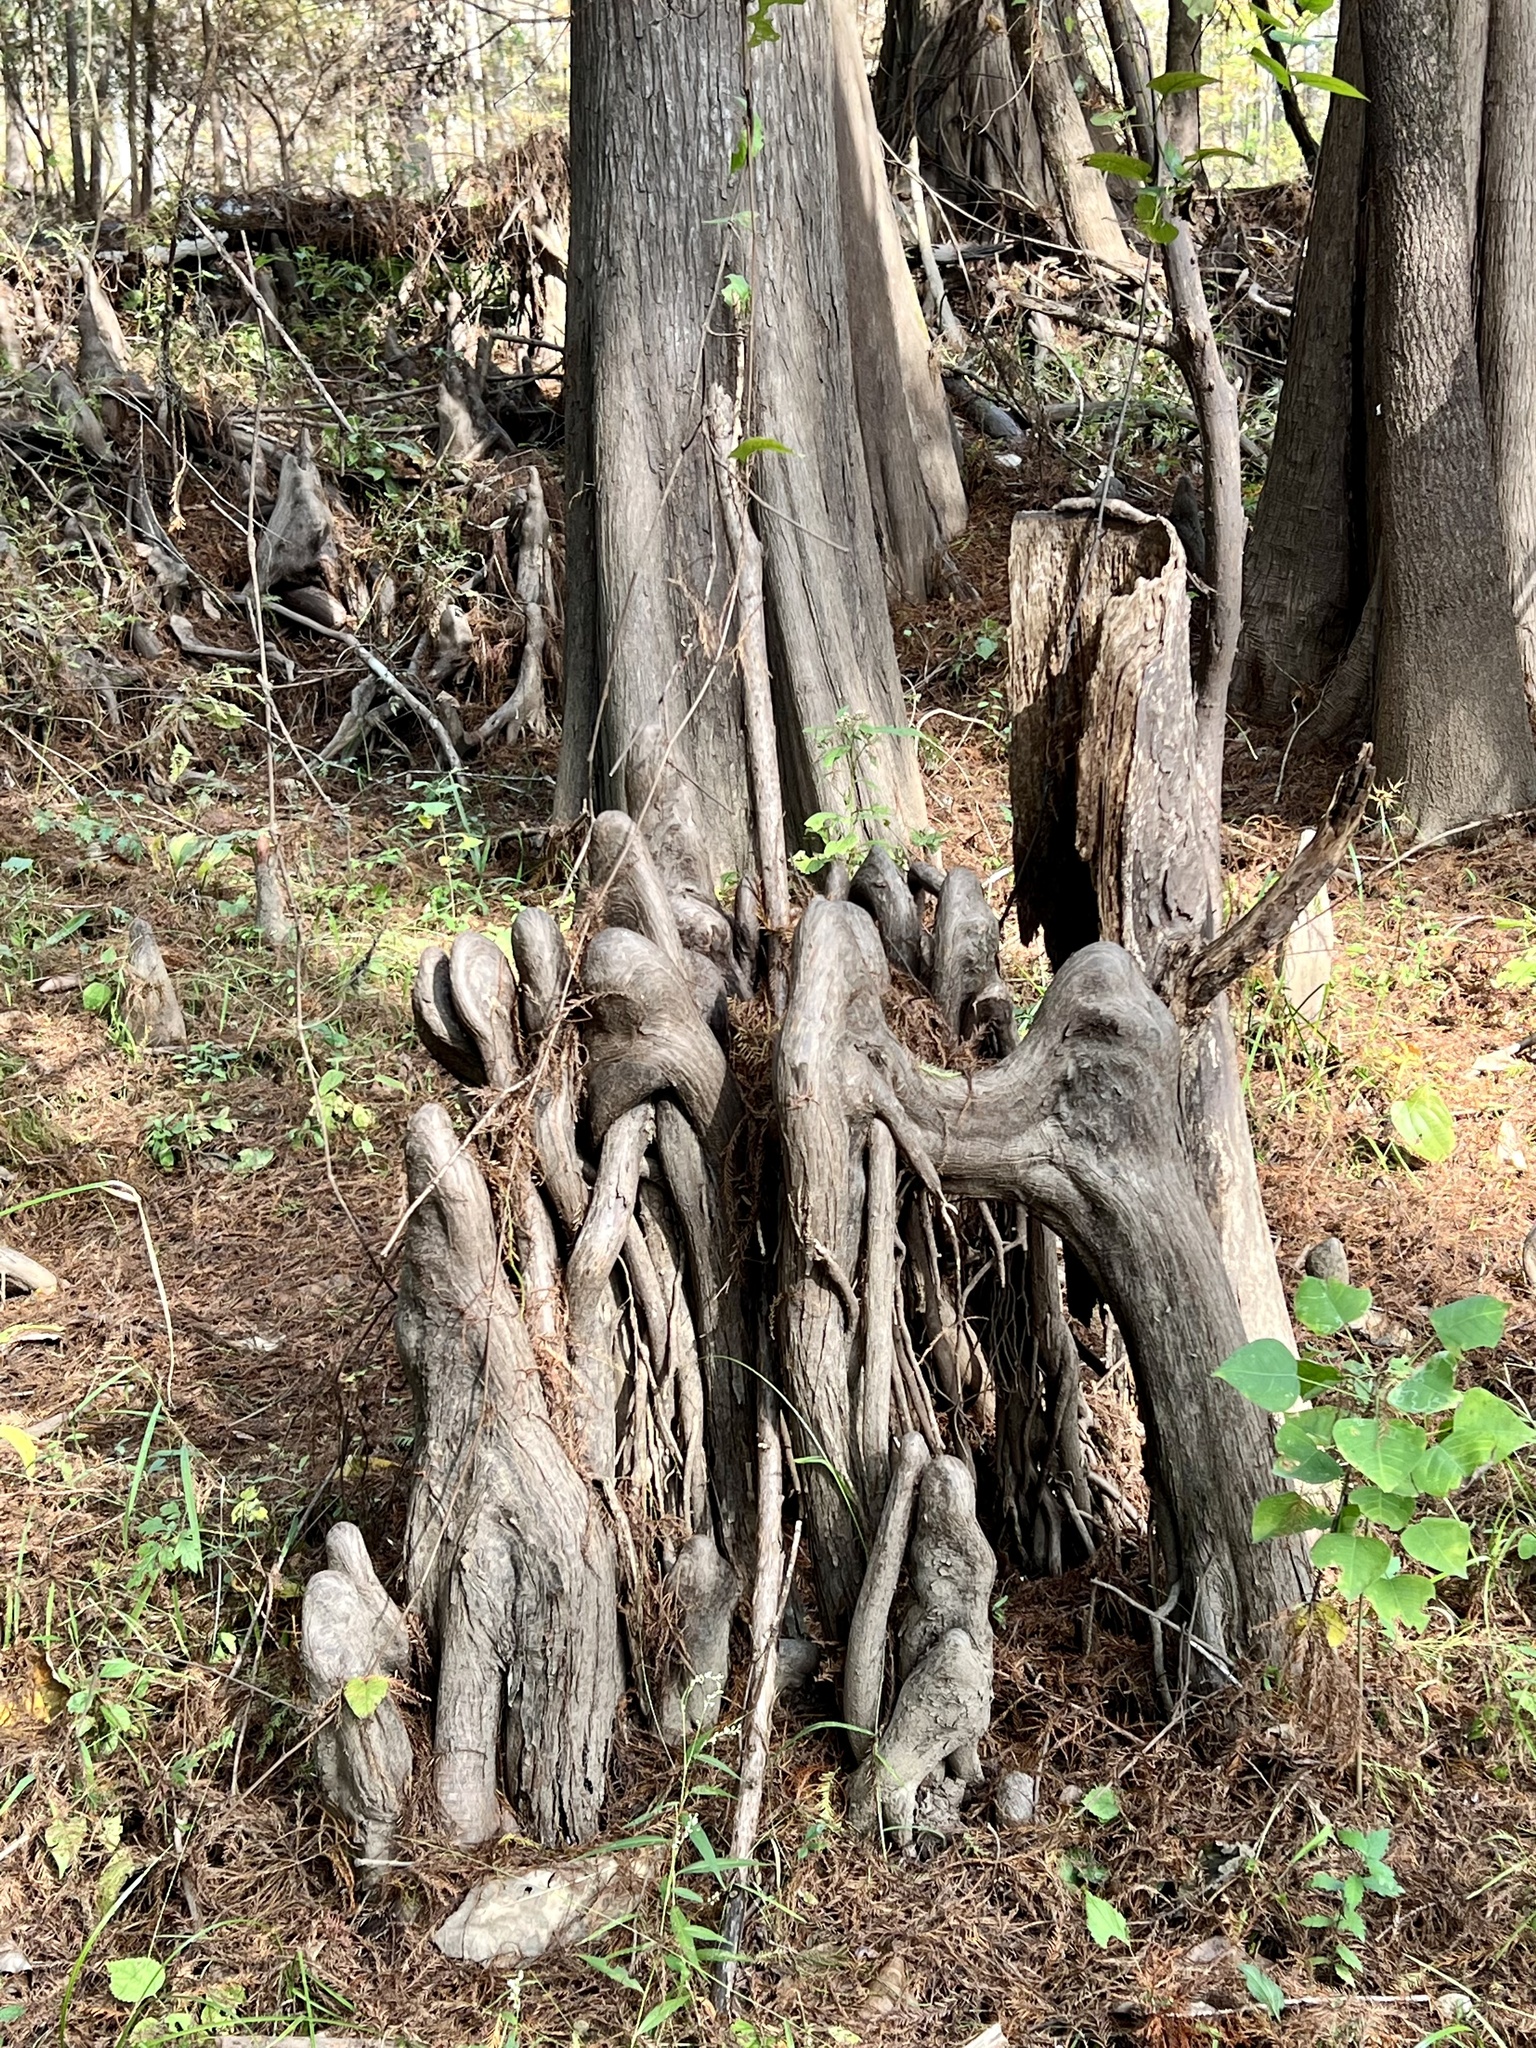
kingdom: Plantae
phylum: Tracheophyta
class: Pinopsida
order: Pinales
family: Cupressaceae
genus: Taxodium
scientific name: Taxodium distichum
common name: Bald cypress
